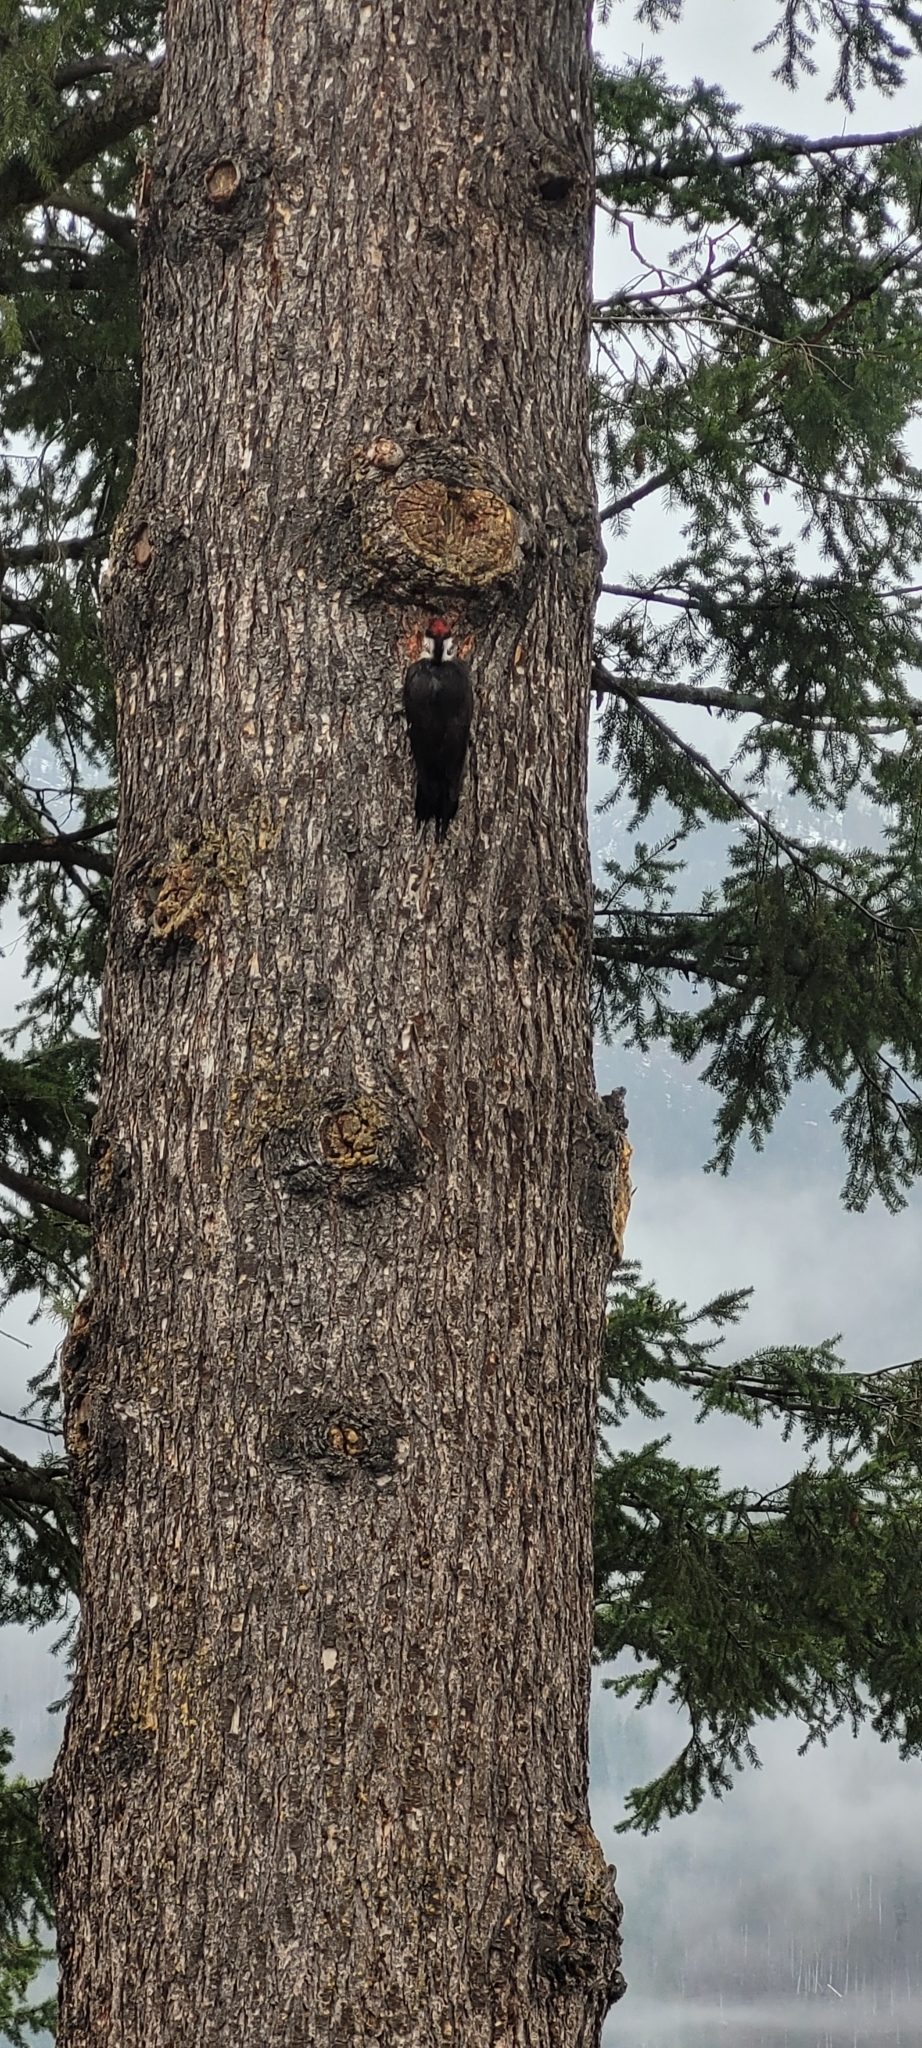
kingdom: Animalia
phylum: Chordata
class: Aves
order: Piciformes
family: Picidae
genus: Dryocopus
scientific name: Dryocopus pileatus
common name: Pileated woodpecker
